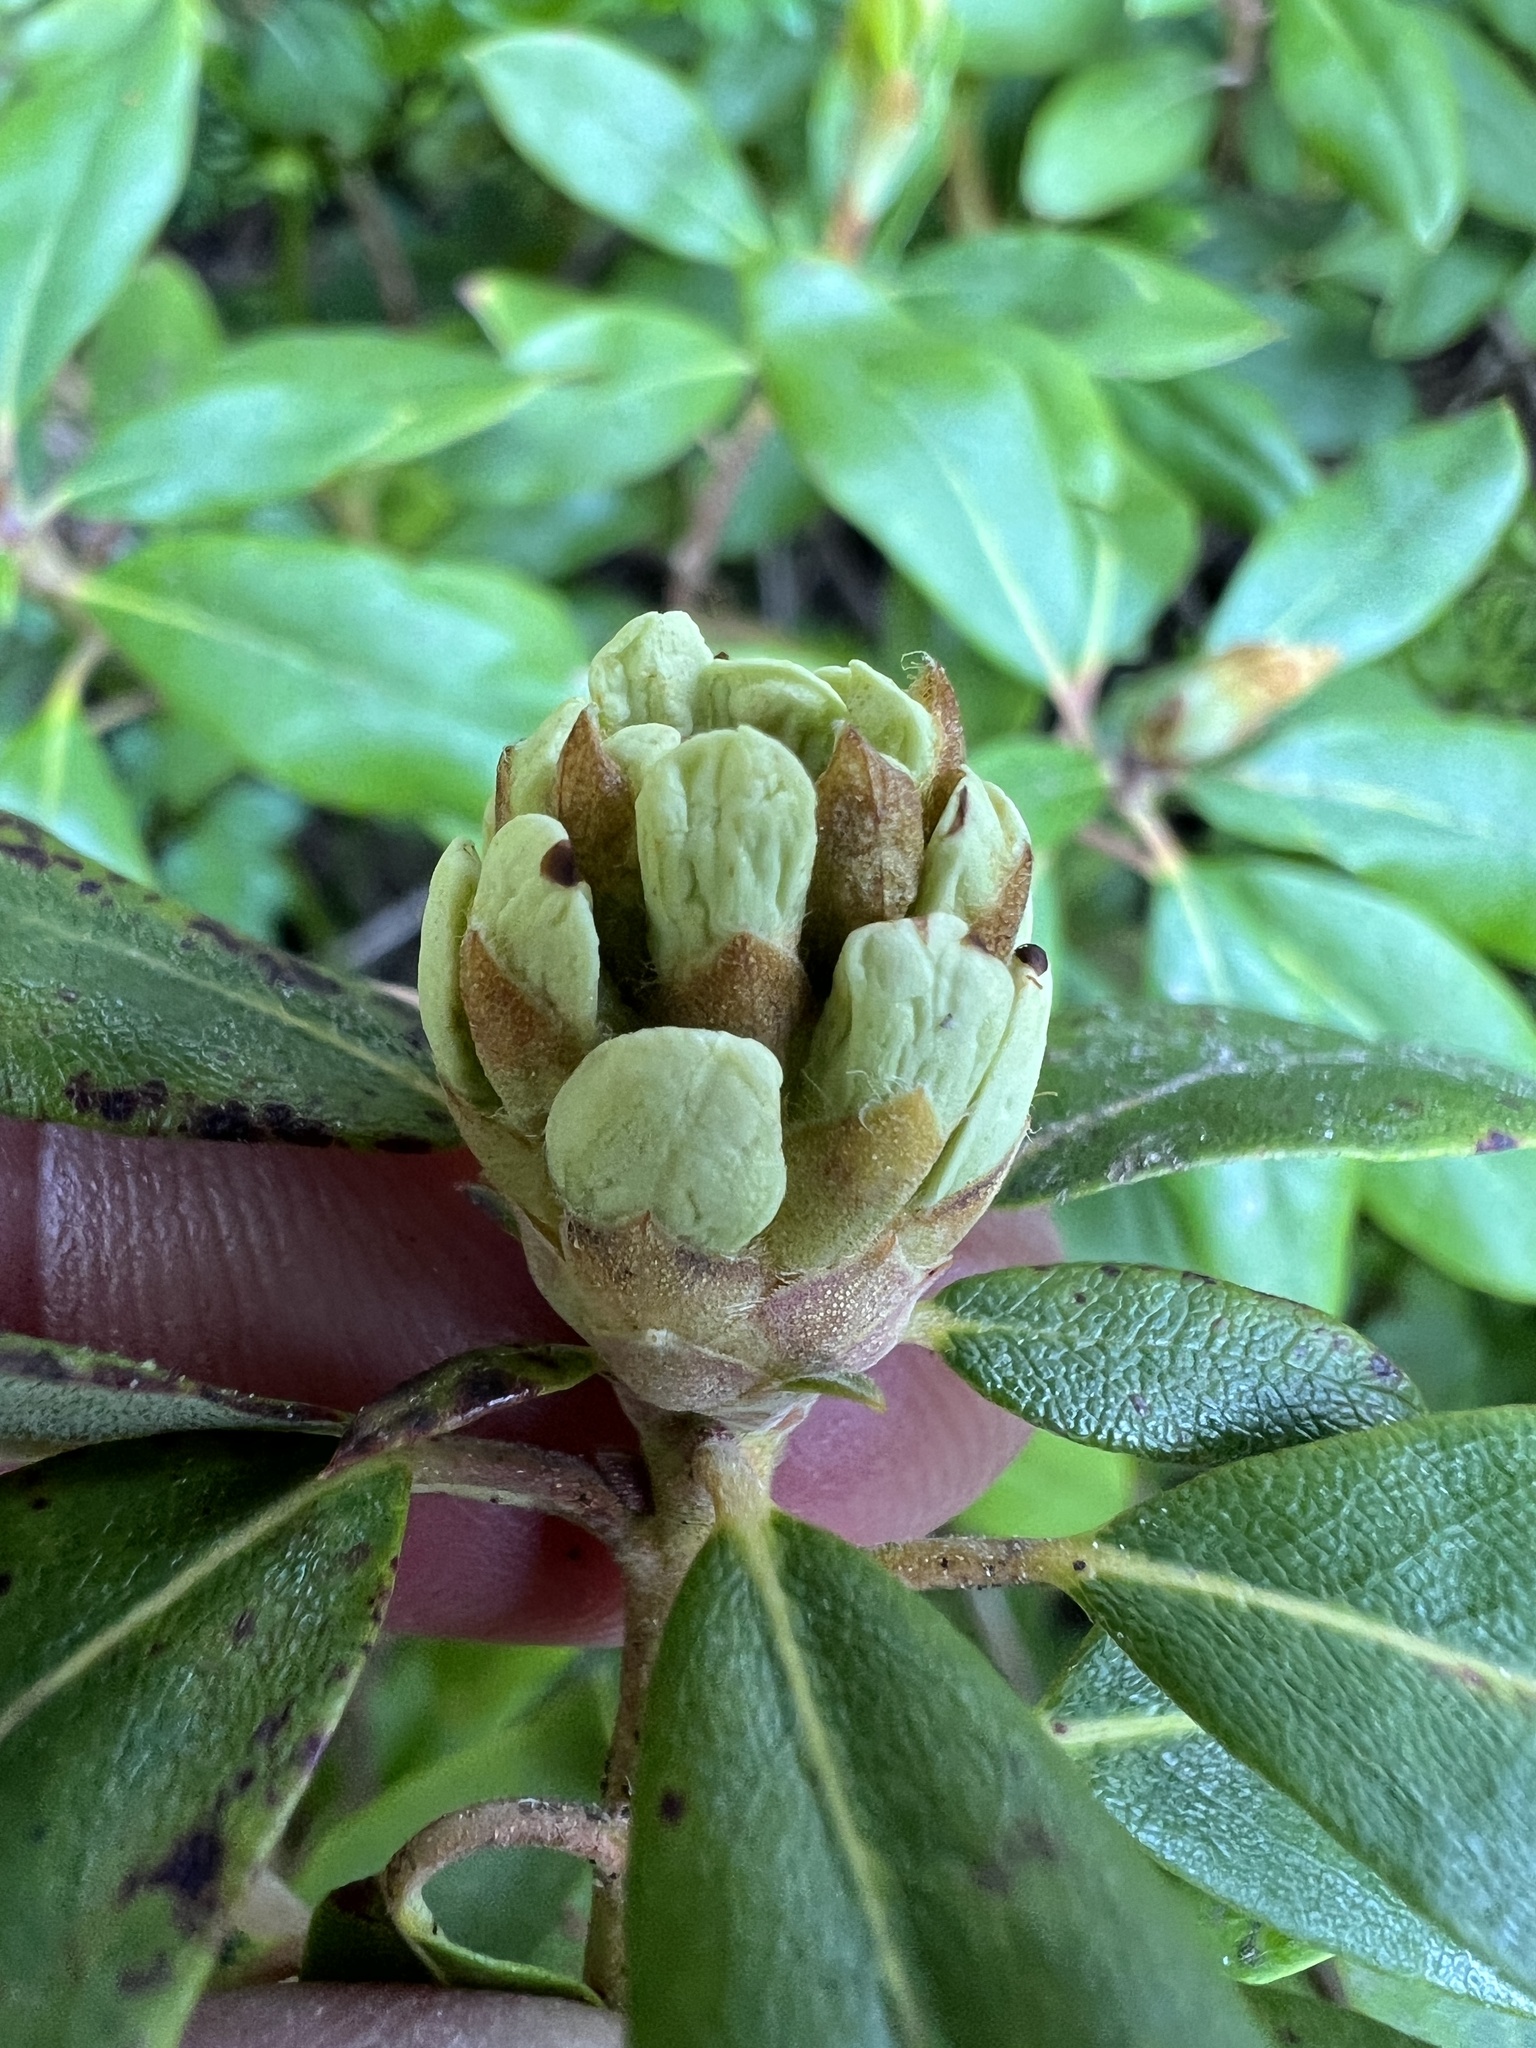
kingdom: Plantae
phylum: Tracheophyta
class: Magnoliopsida
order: Ericales
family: Ericaceae
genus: Rhododendron
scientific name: Rhododendron columbianum
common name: Western labrador tea
